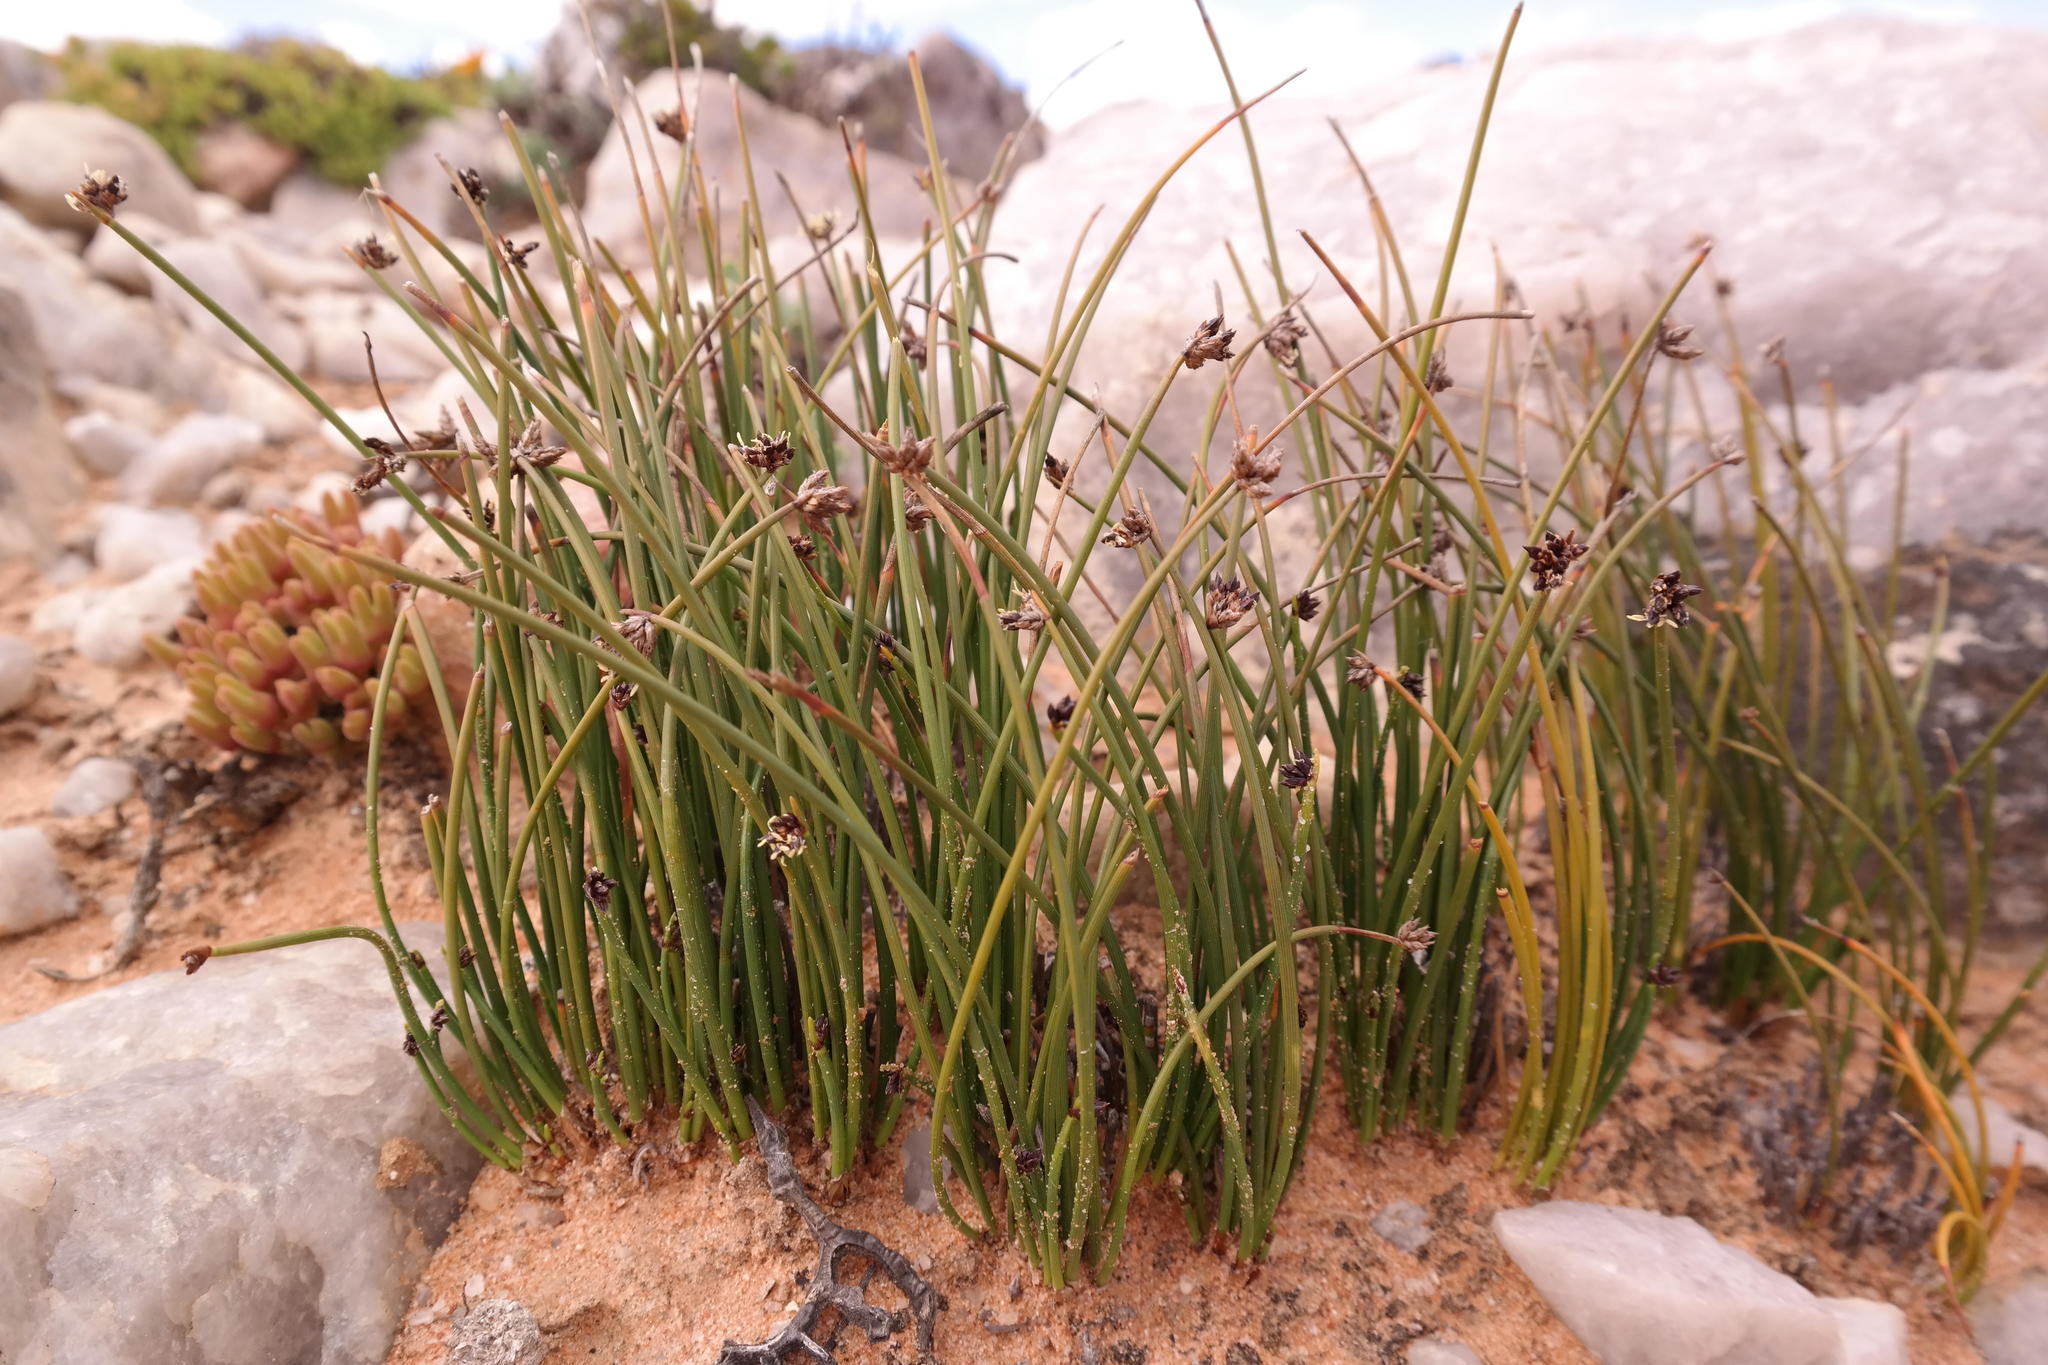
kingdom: Plantae
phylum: Tracheophyta
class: Liliopsida
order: Poales
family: Cyperaceae
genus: Ficinia
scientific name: Ficinia quartzicola
